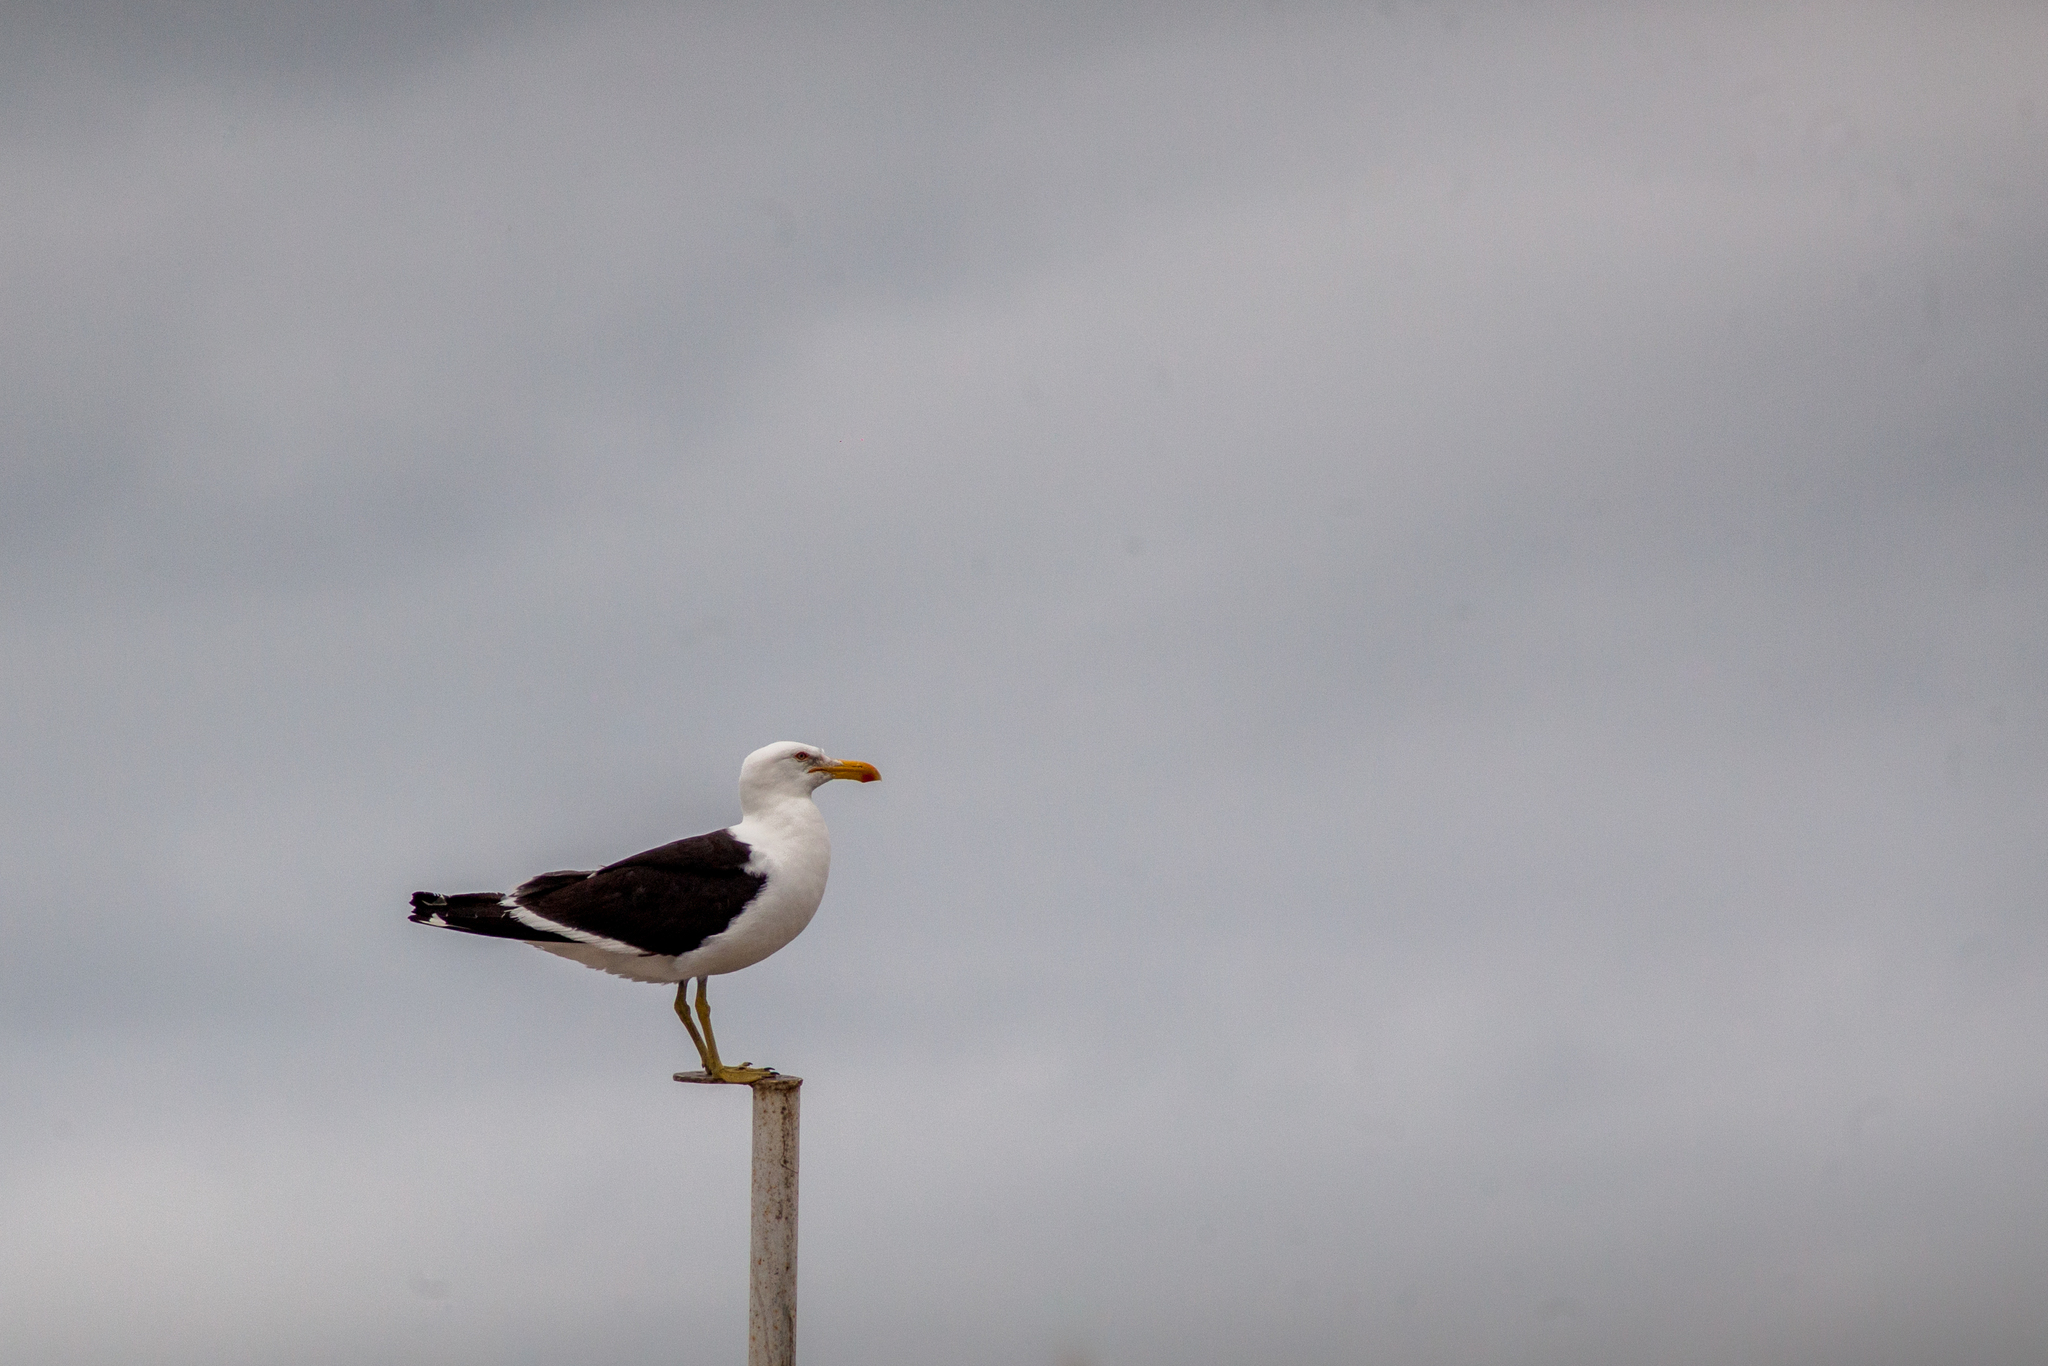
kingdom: Animalia
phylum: Chordata
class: Aves
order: Charadriiformes
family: Laridae
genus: Larus
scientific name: Larus dominicanus
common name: Kelp gull
